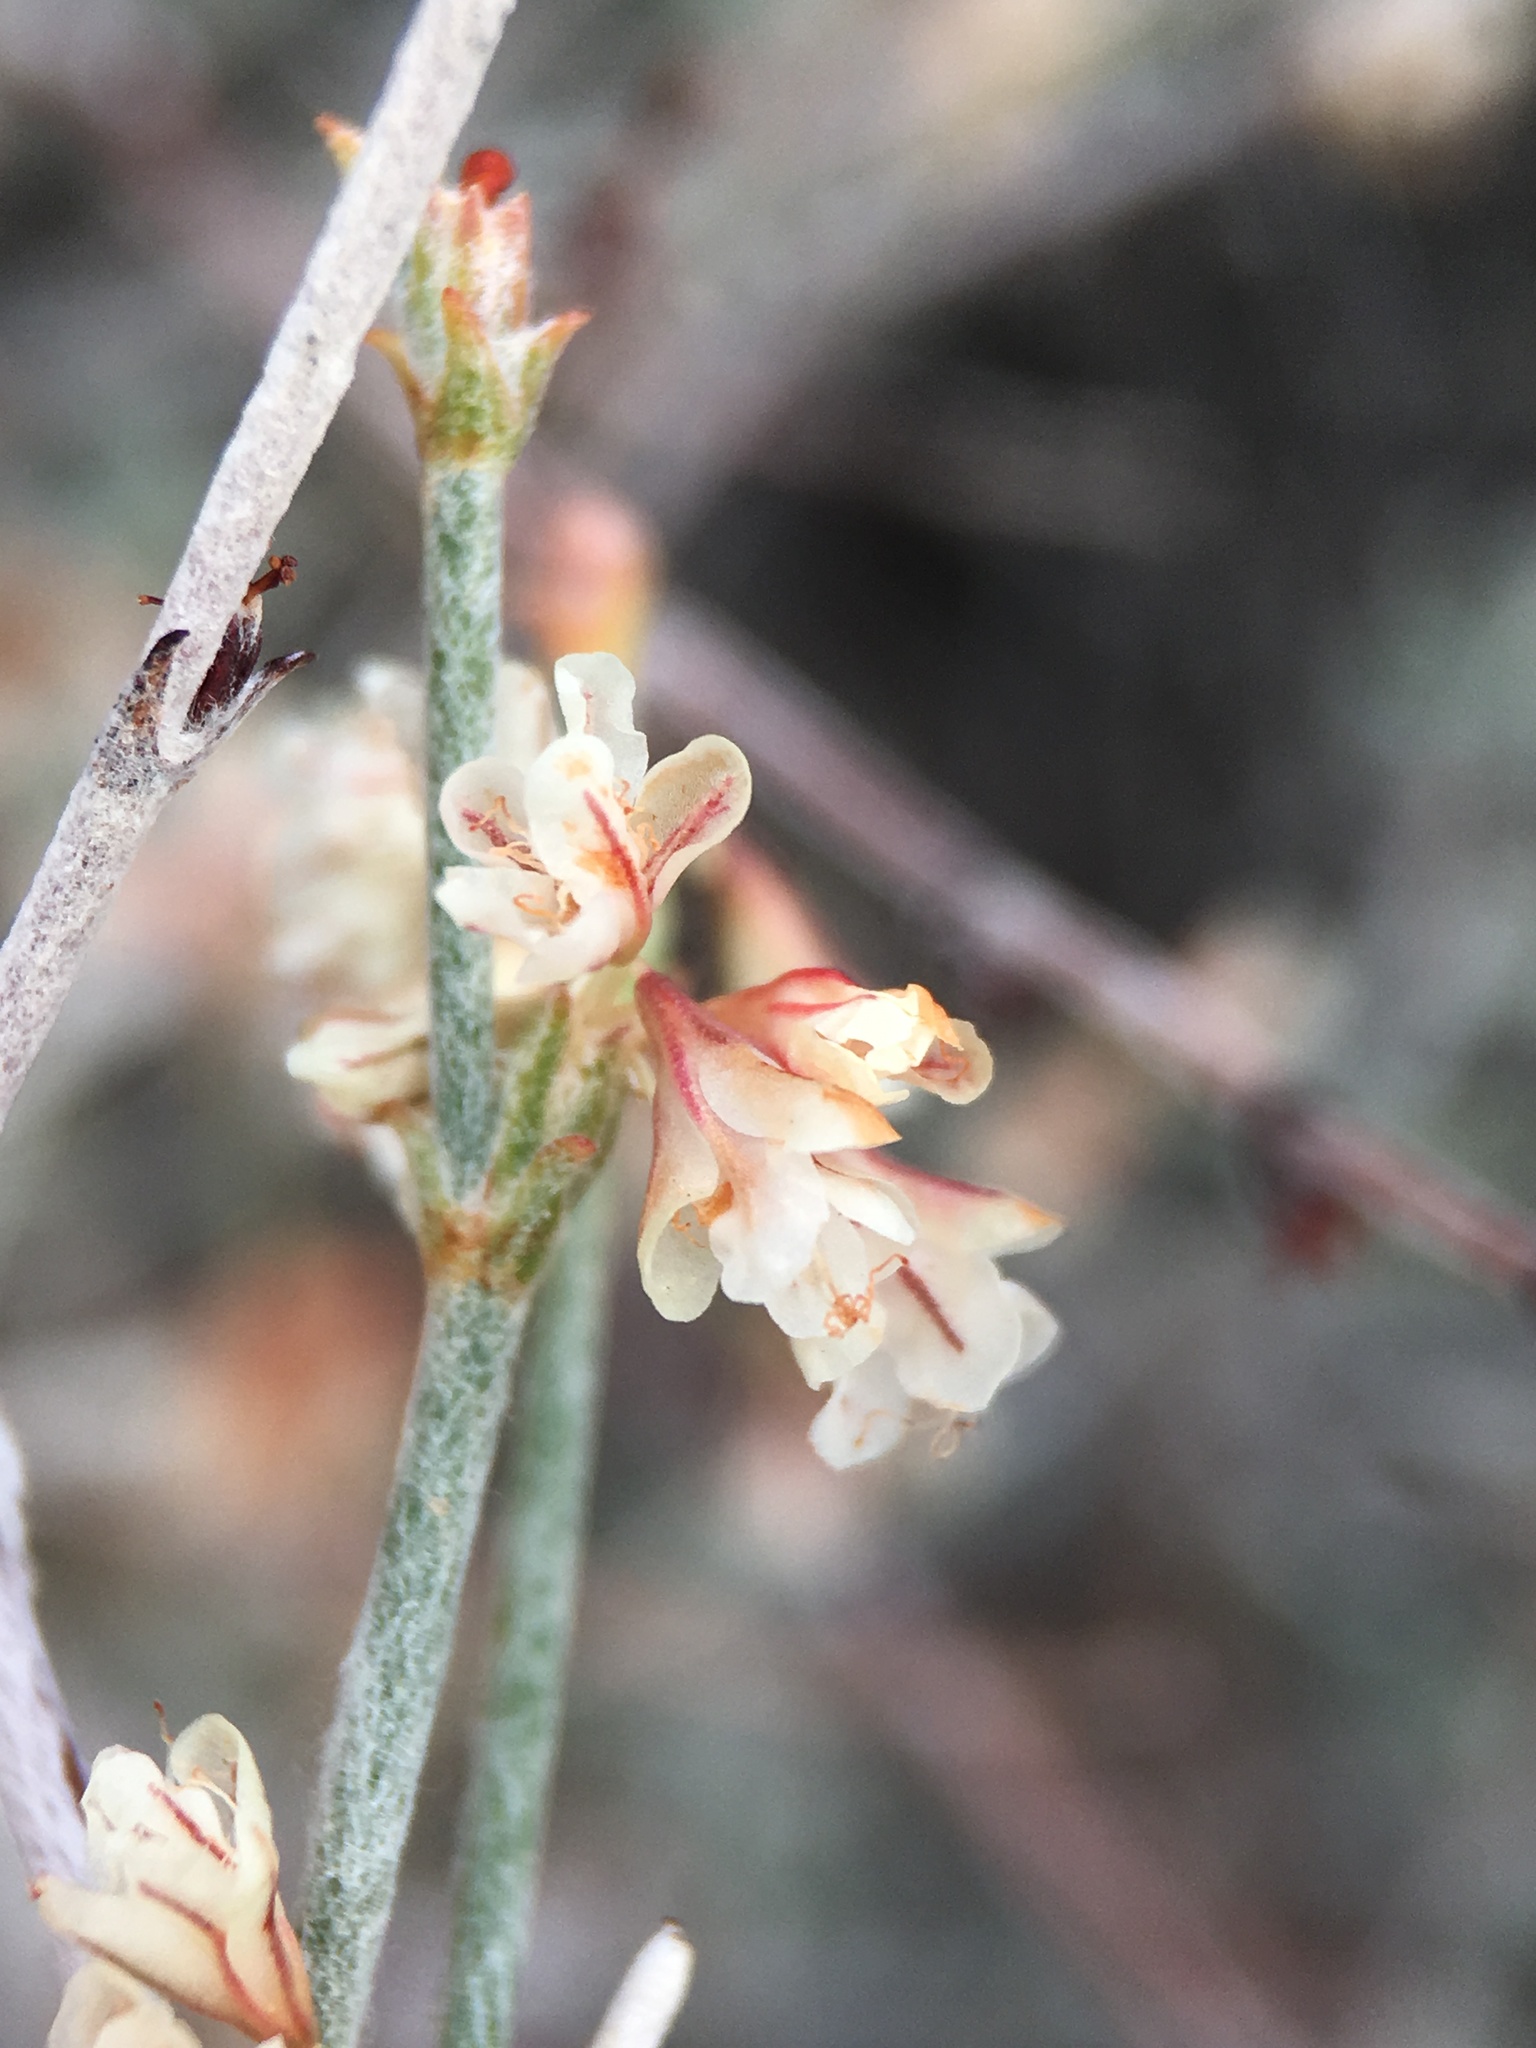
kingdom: Plantae
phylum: Tracheophyta
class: Magnoliopsida
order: Caryophyllales
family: Polygonaceae
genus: Eriogonum
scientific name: Eriogonum wrightii
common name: Bastard-sage
